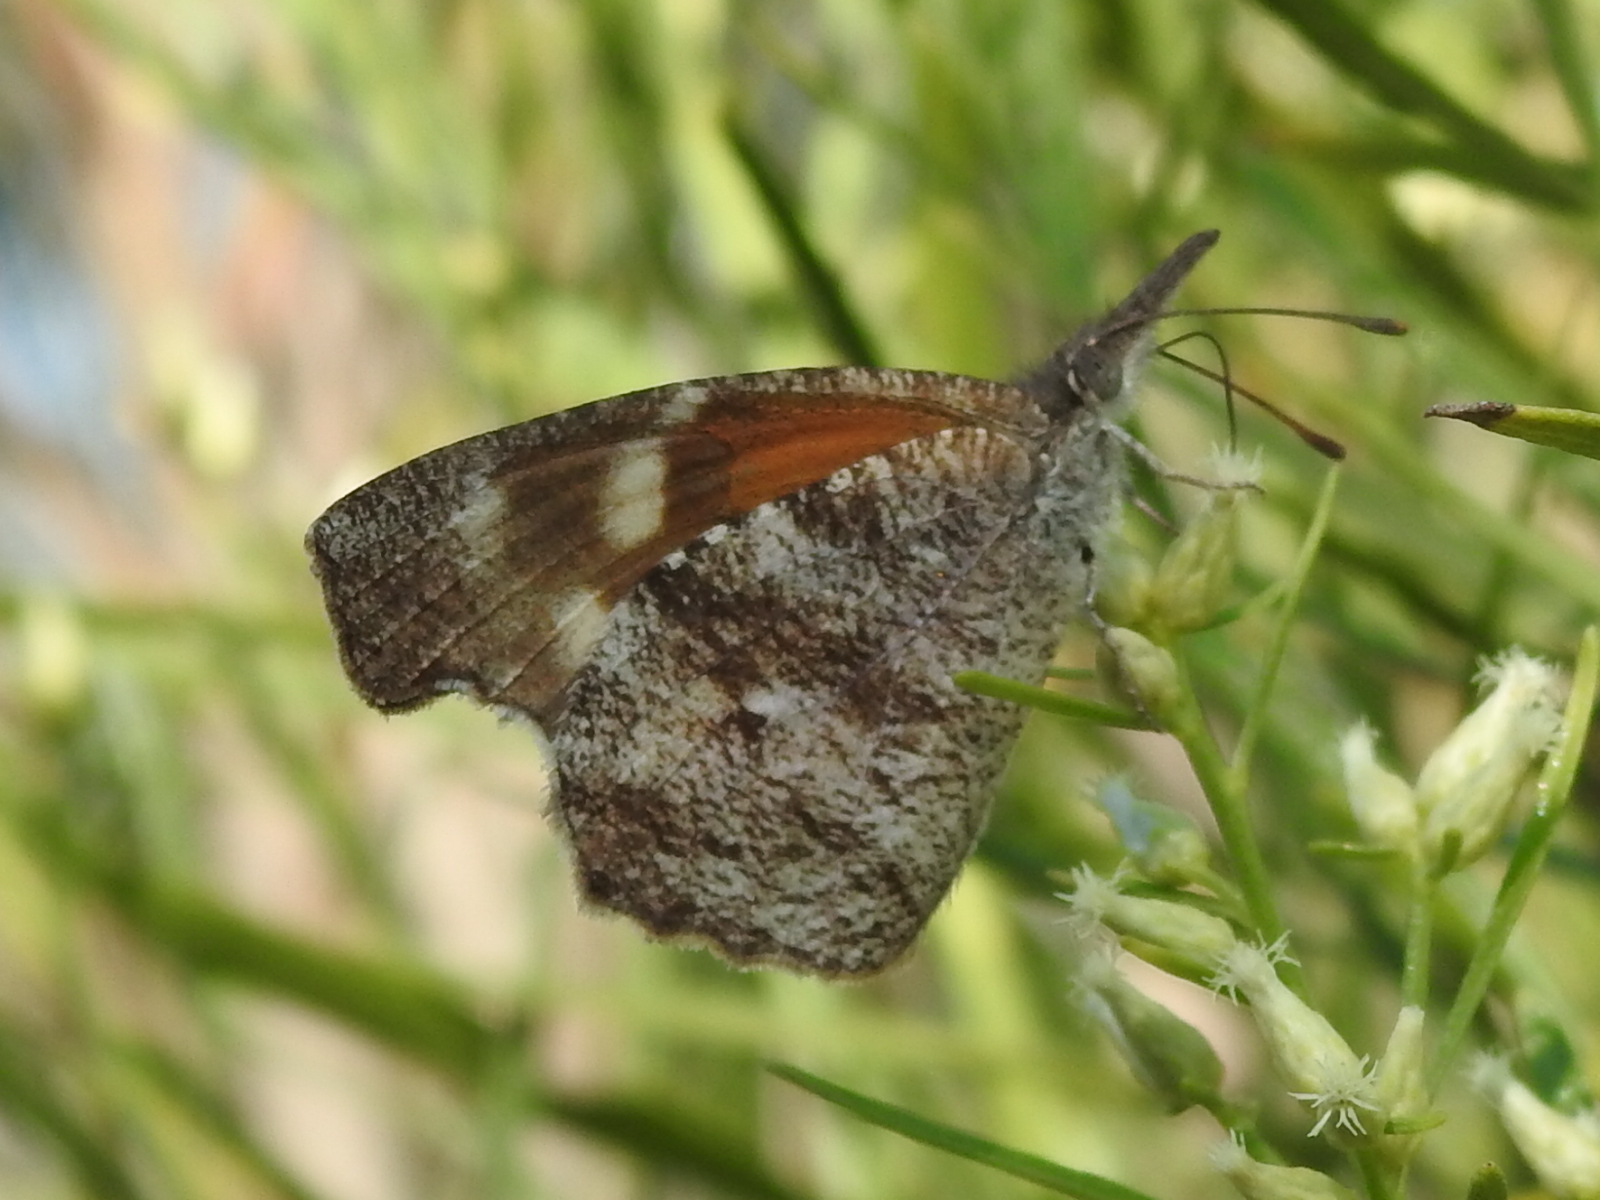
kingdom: Animalia
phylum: Arthropoda
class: Insecta
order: Lepidoptera
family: Nymphalidae
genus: Libytheana
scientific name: Libytheana carinenta
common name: American snout
